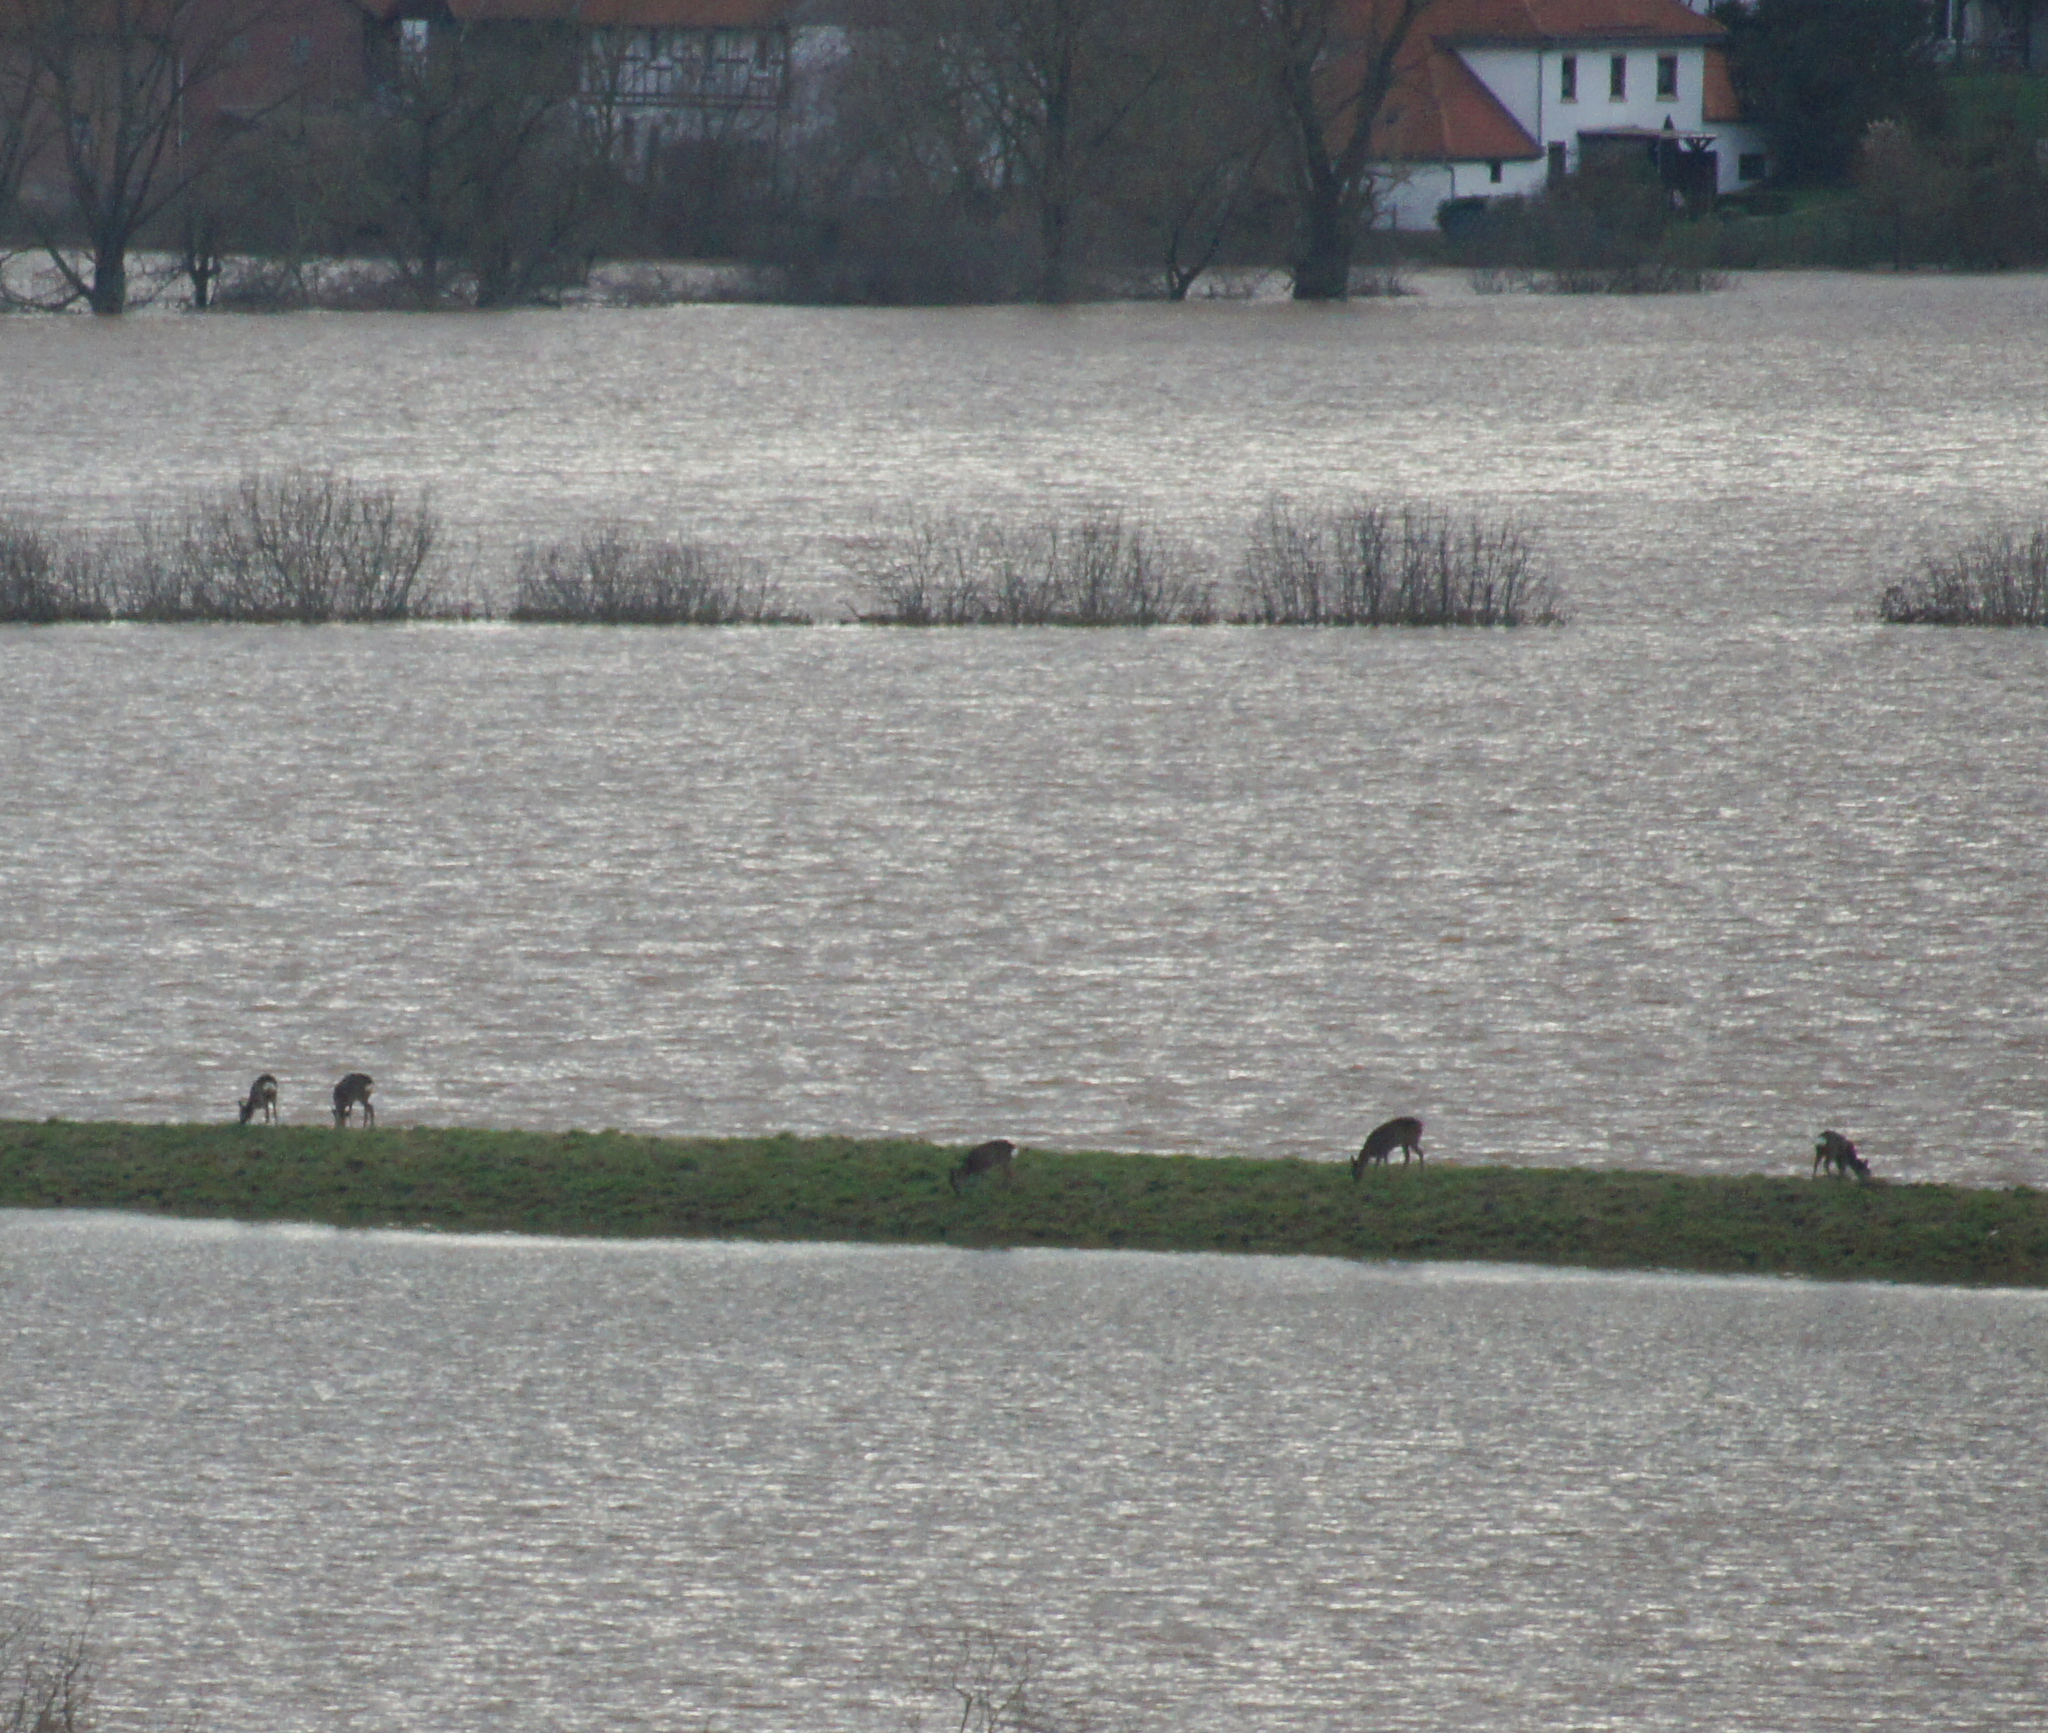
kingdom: Animalia
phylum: Chordata
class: Mammalia
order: Artiodactyla
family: Cervidae
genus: Capreolus
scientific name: Capreolus capreolus
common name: Western roe deer
